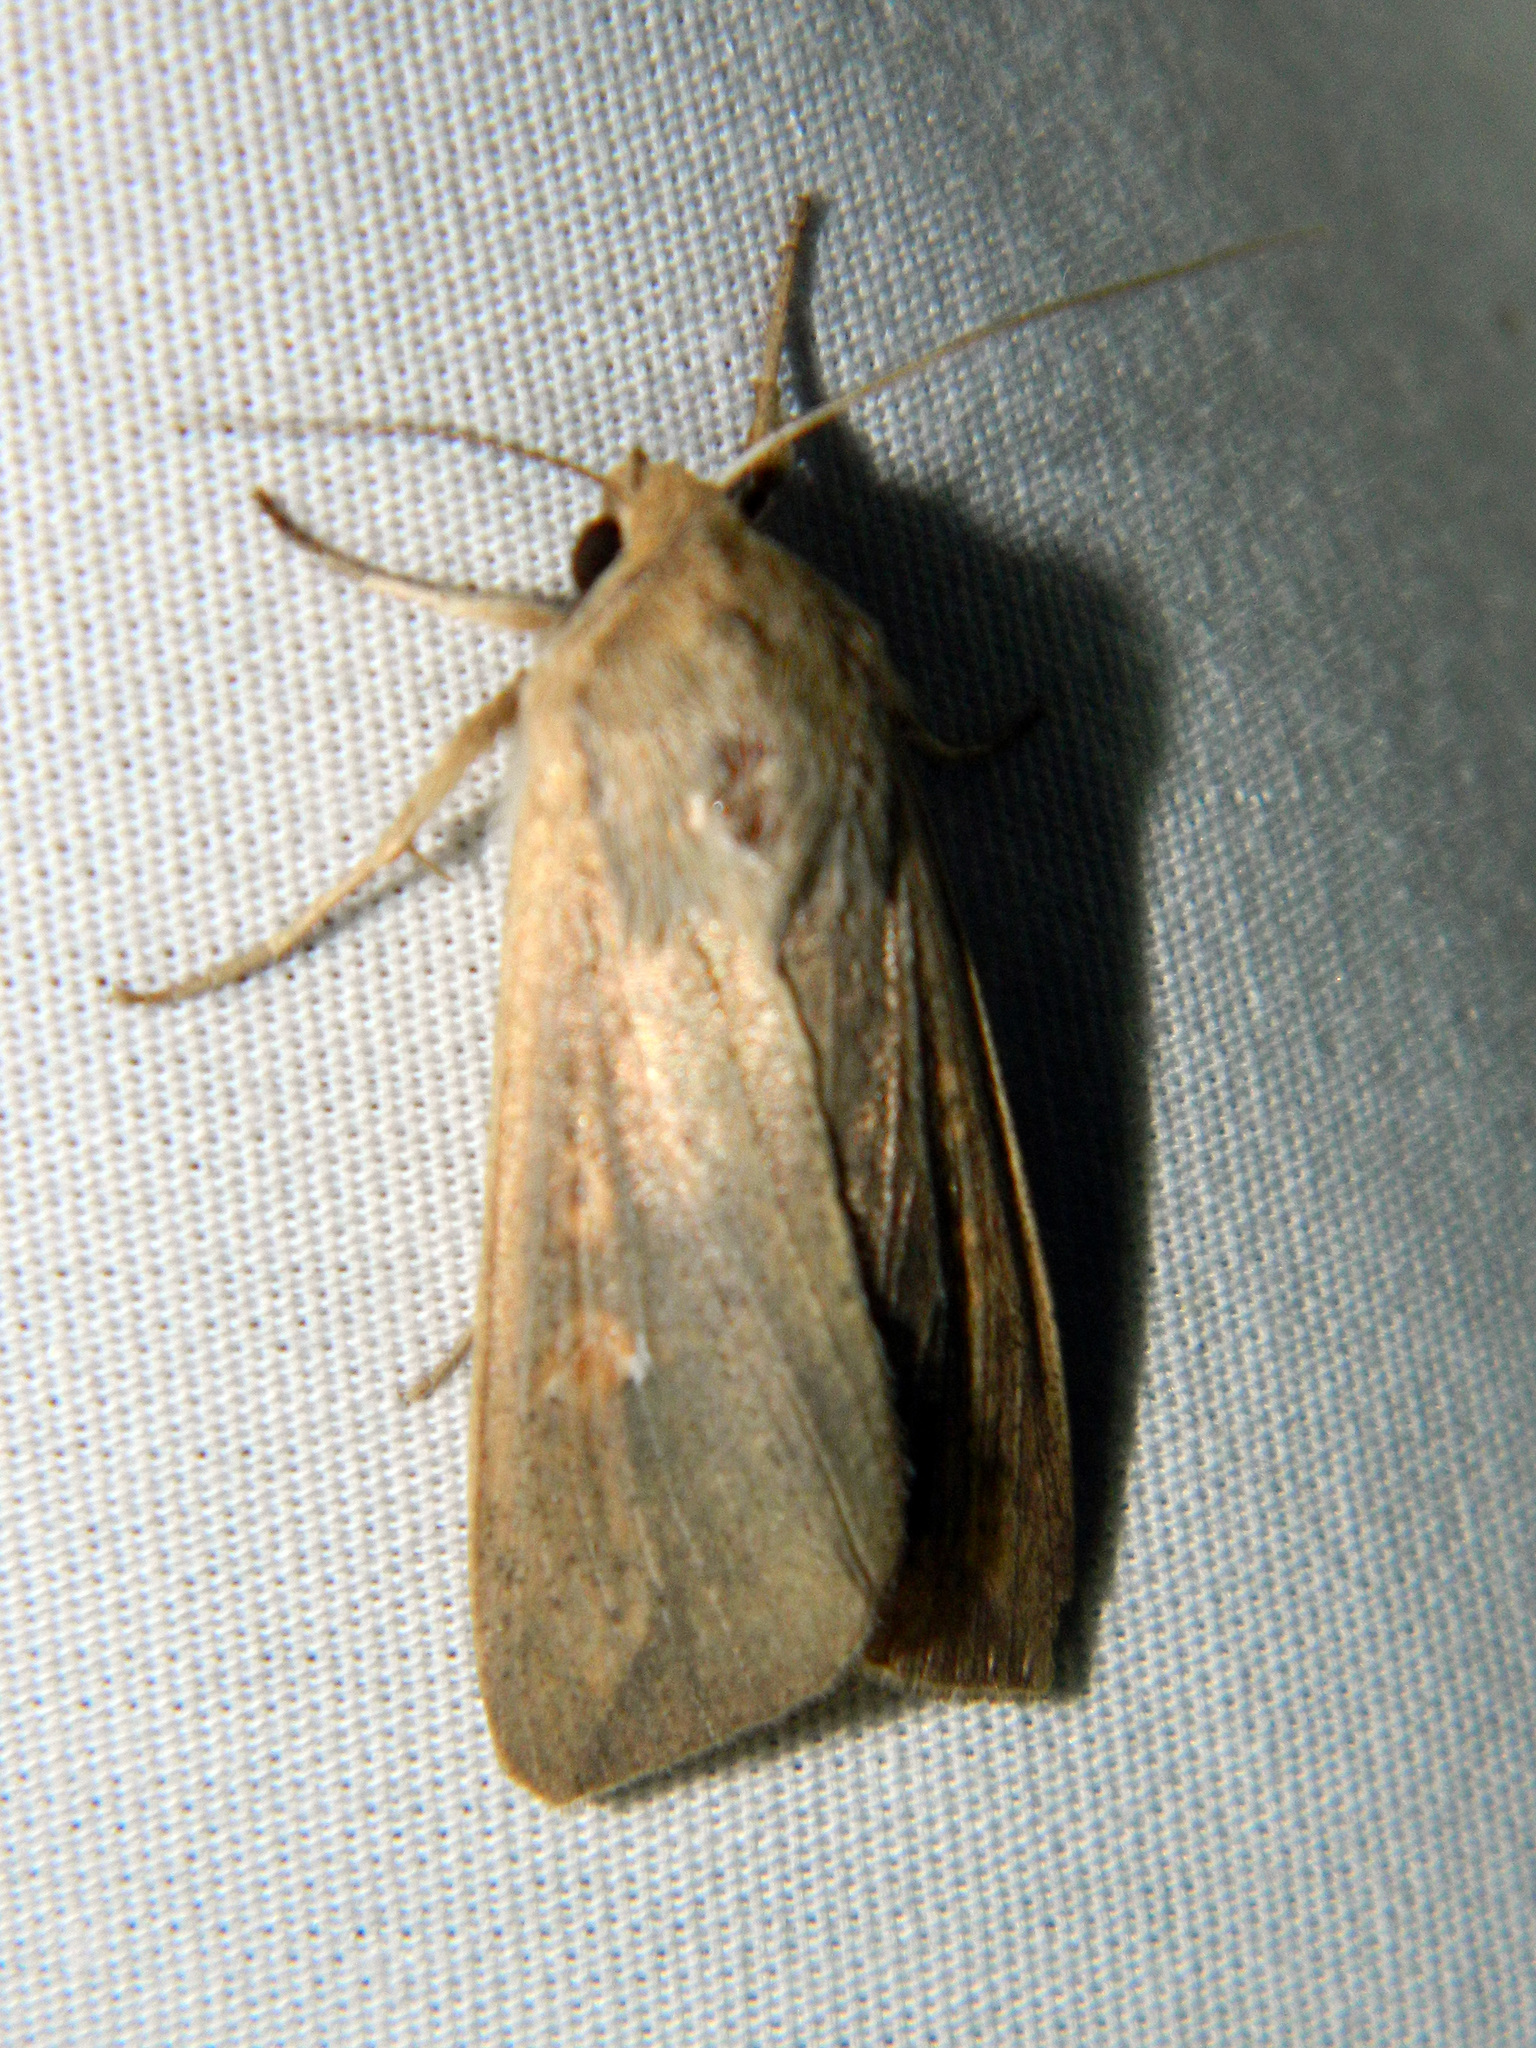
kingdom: Animalia
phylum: Arthropoda
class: Insecta
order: Lepidoptera
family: Noctuidae
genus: Mythimna
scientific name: Mythimna unipuncta
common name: White-speck
